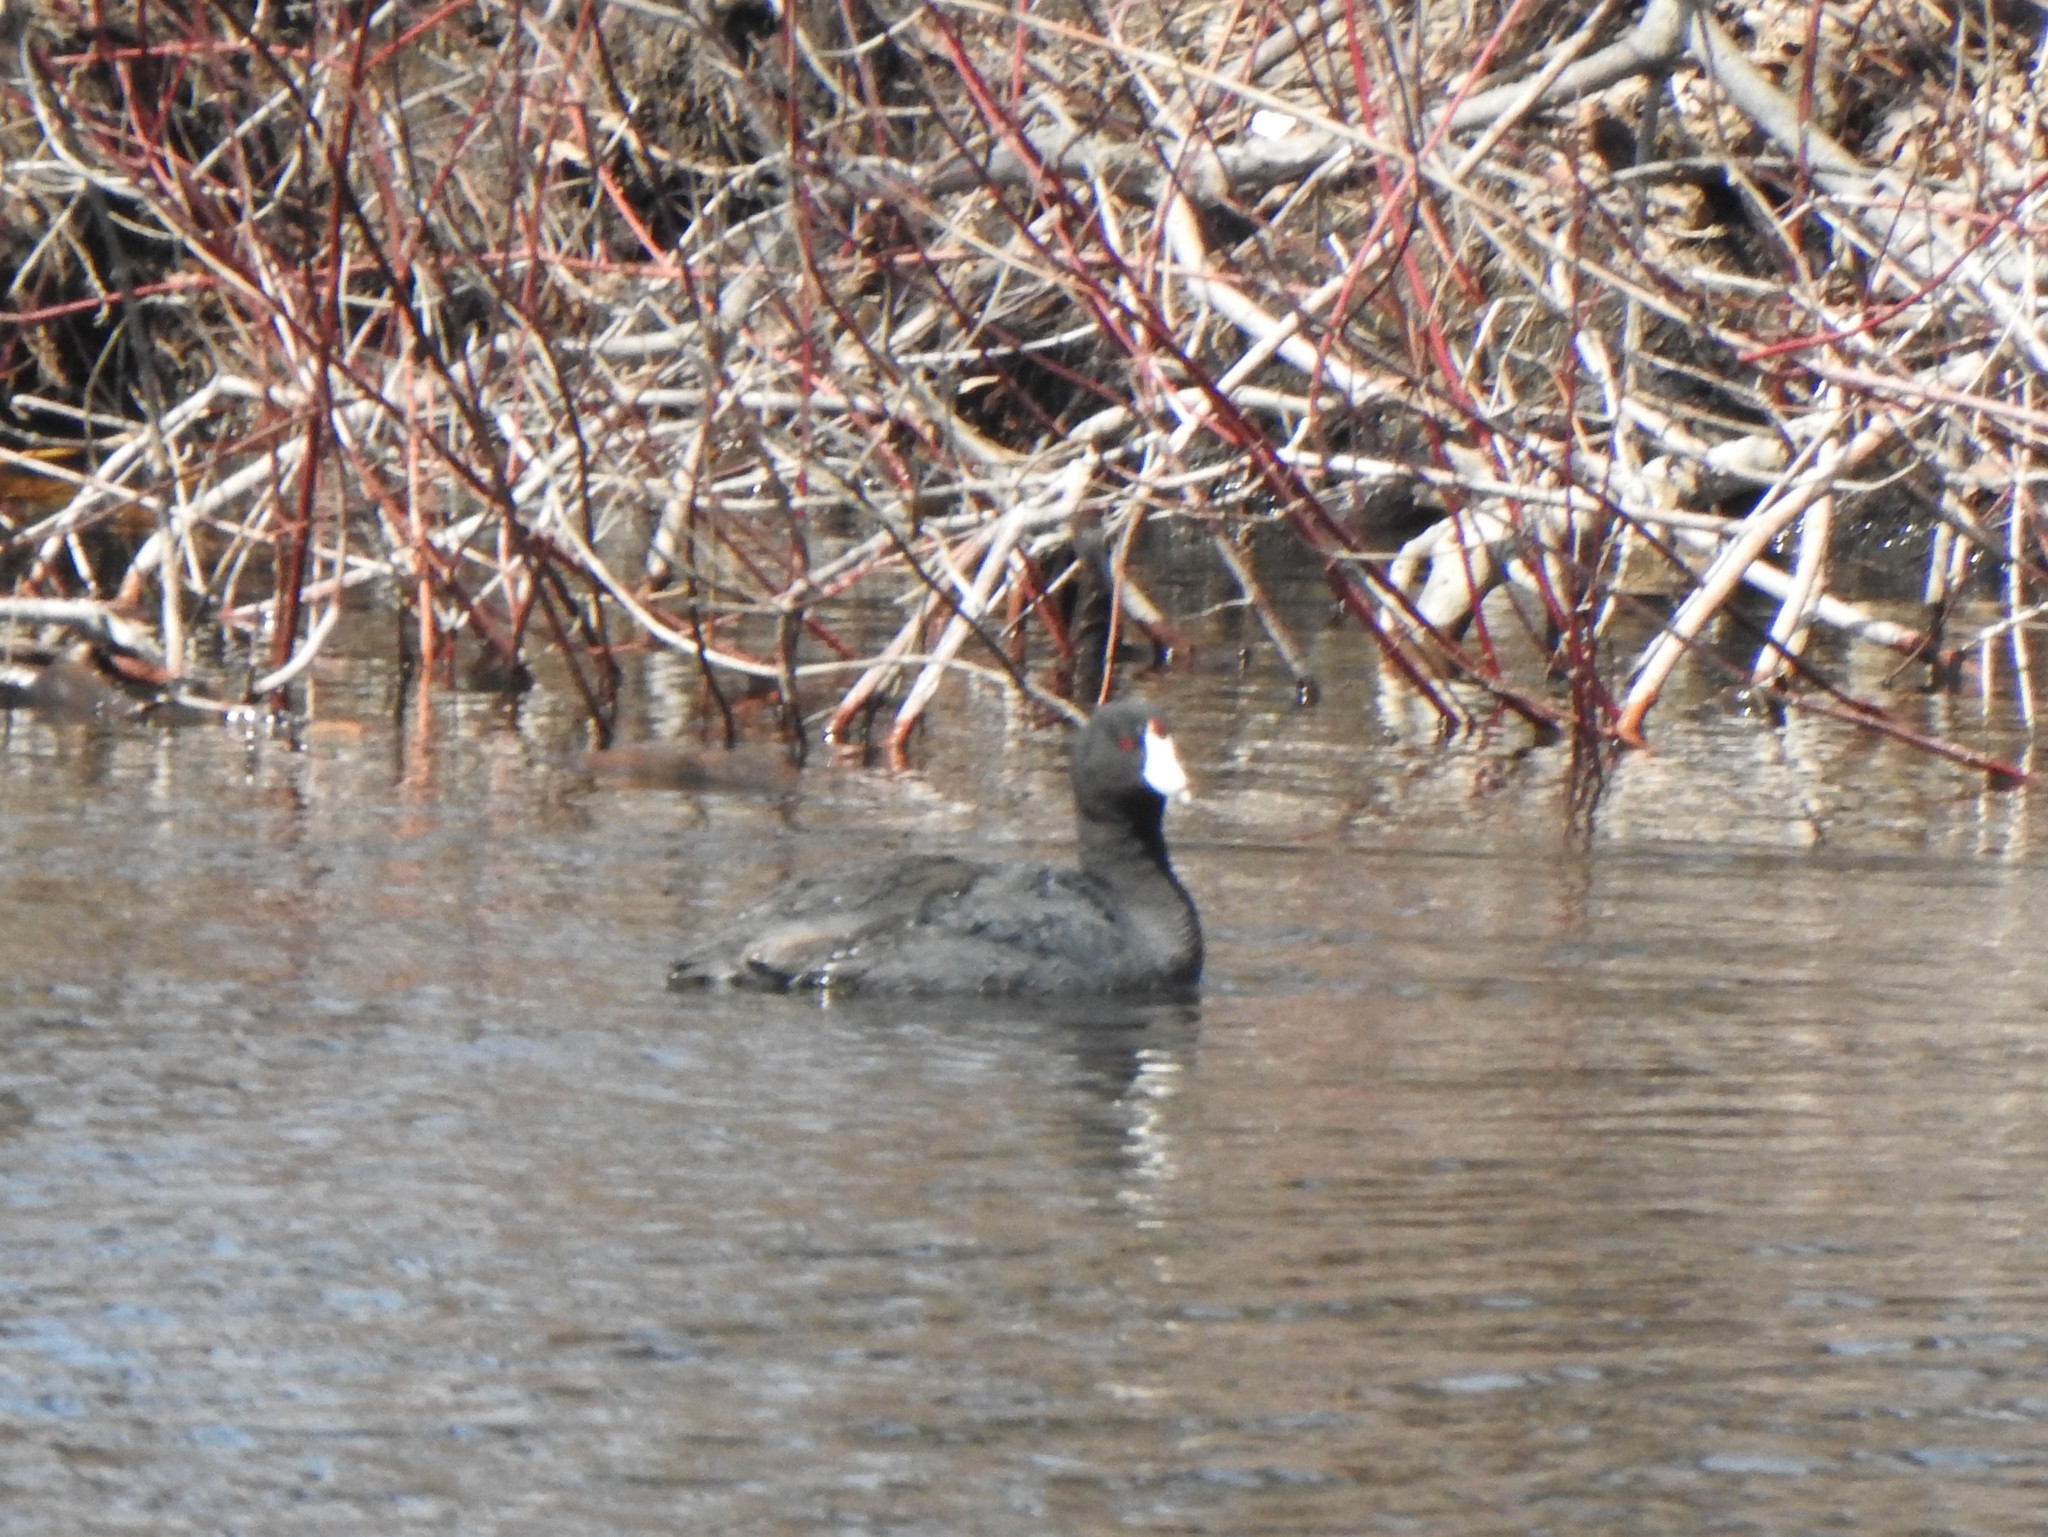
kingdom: Animalia
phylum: Chordata
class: Aves
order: Gruiformes
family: Rallidae
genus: Fulica
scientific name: Fulica americana
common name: American coot
